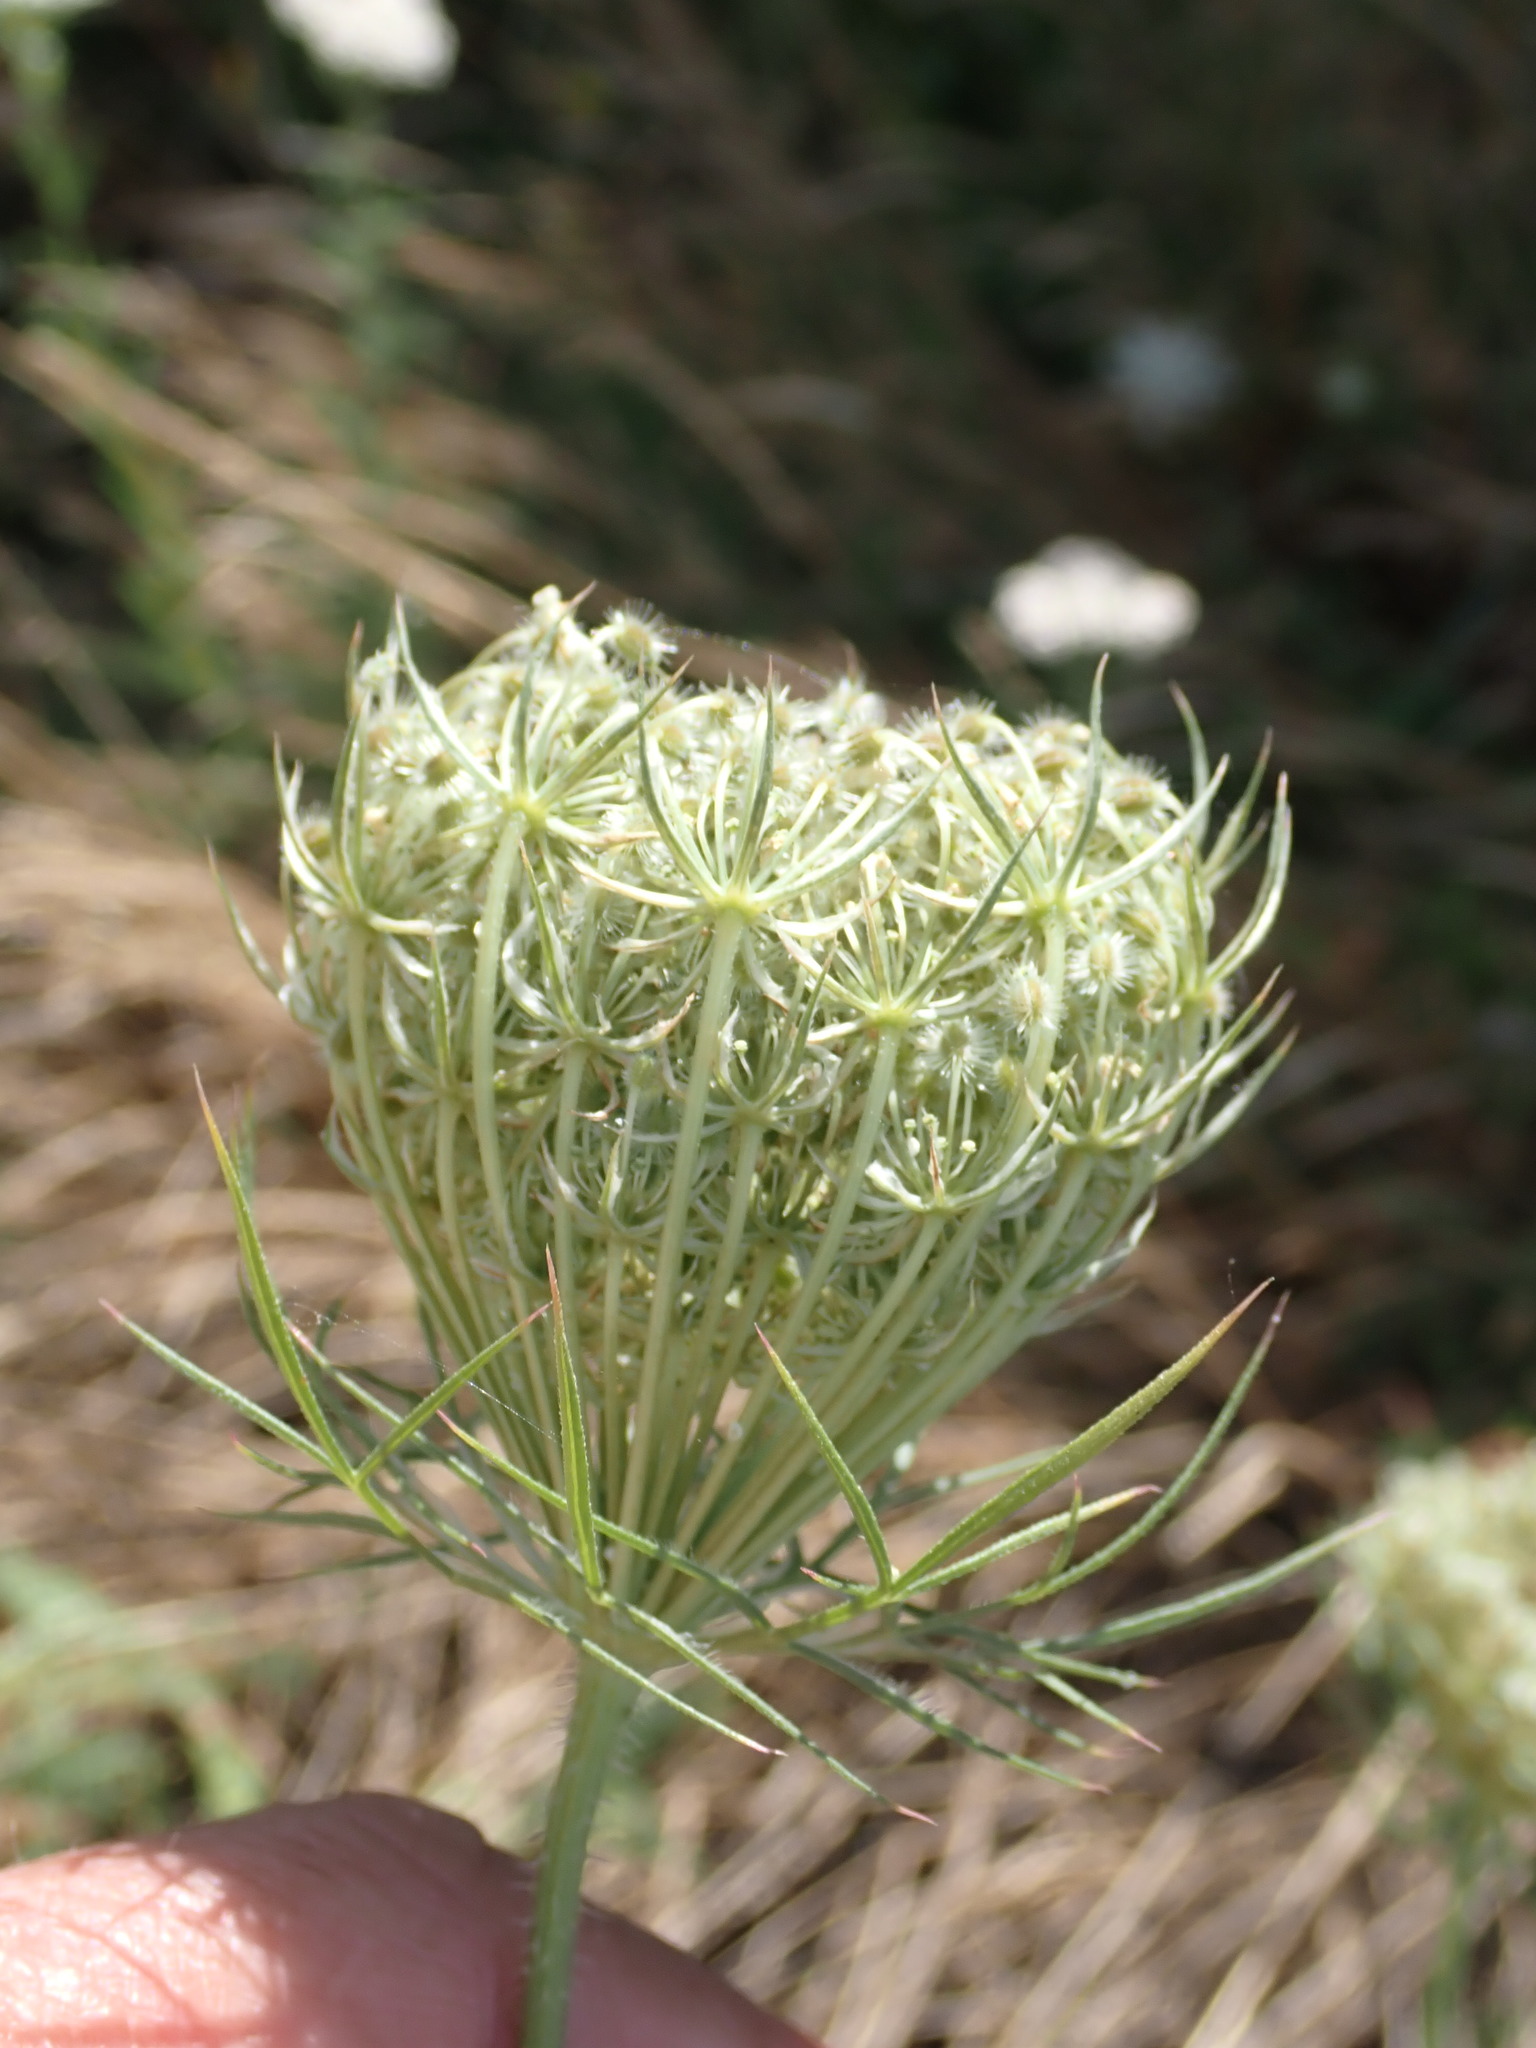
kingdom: Plantae
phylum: Tracheophyta
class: Magnoliopsida
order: Apiales
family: Apiaceae
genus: Daucus
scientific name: Daucus carota
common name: Wild carrot
